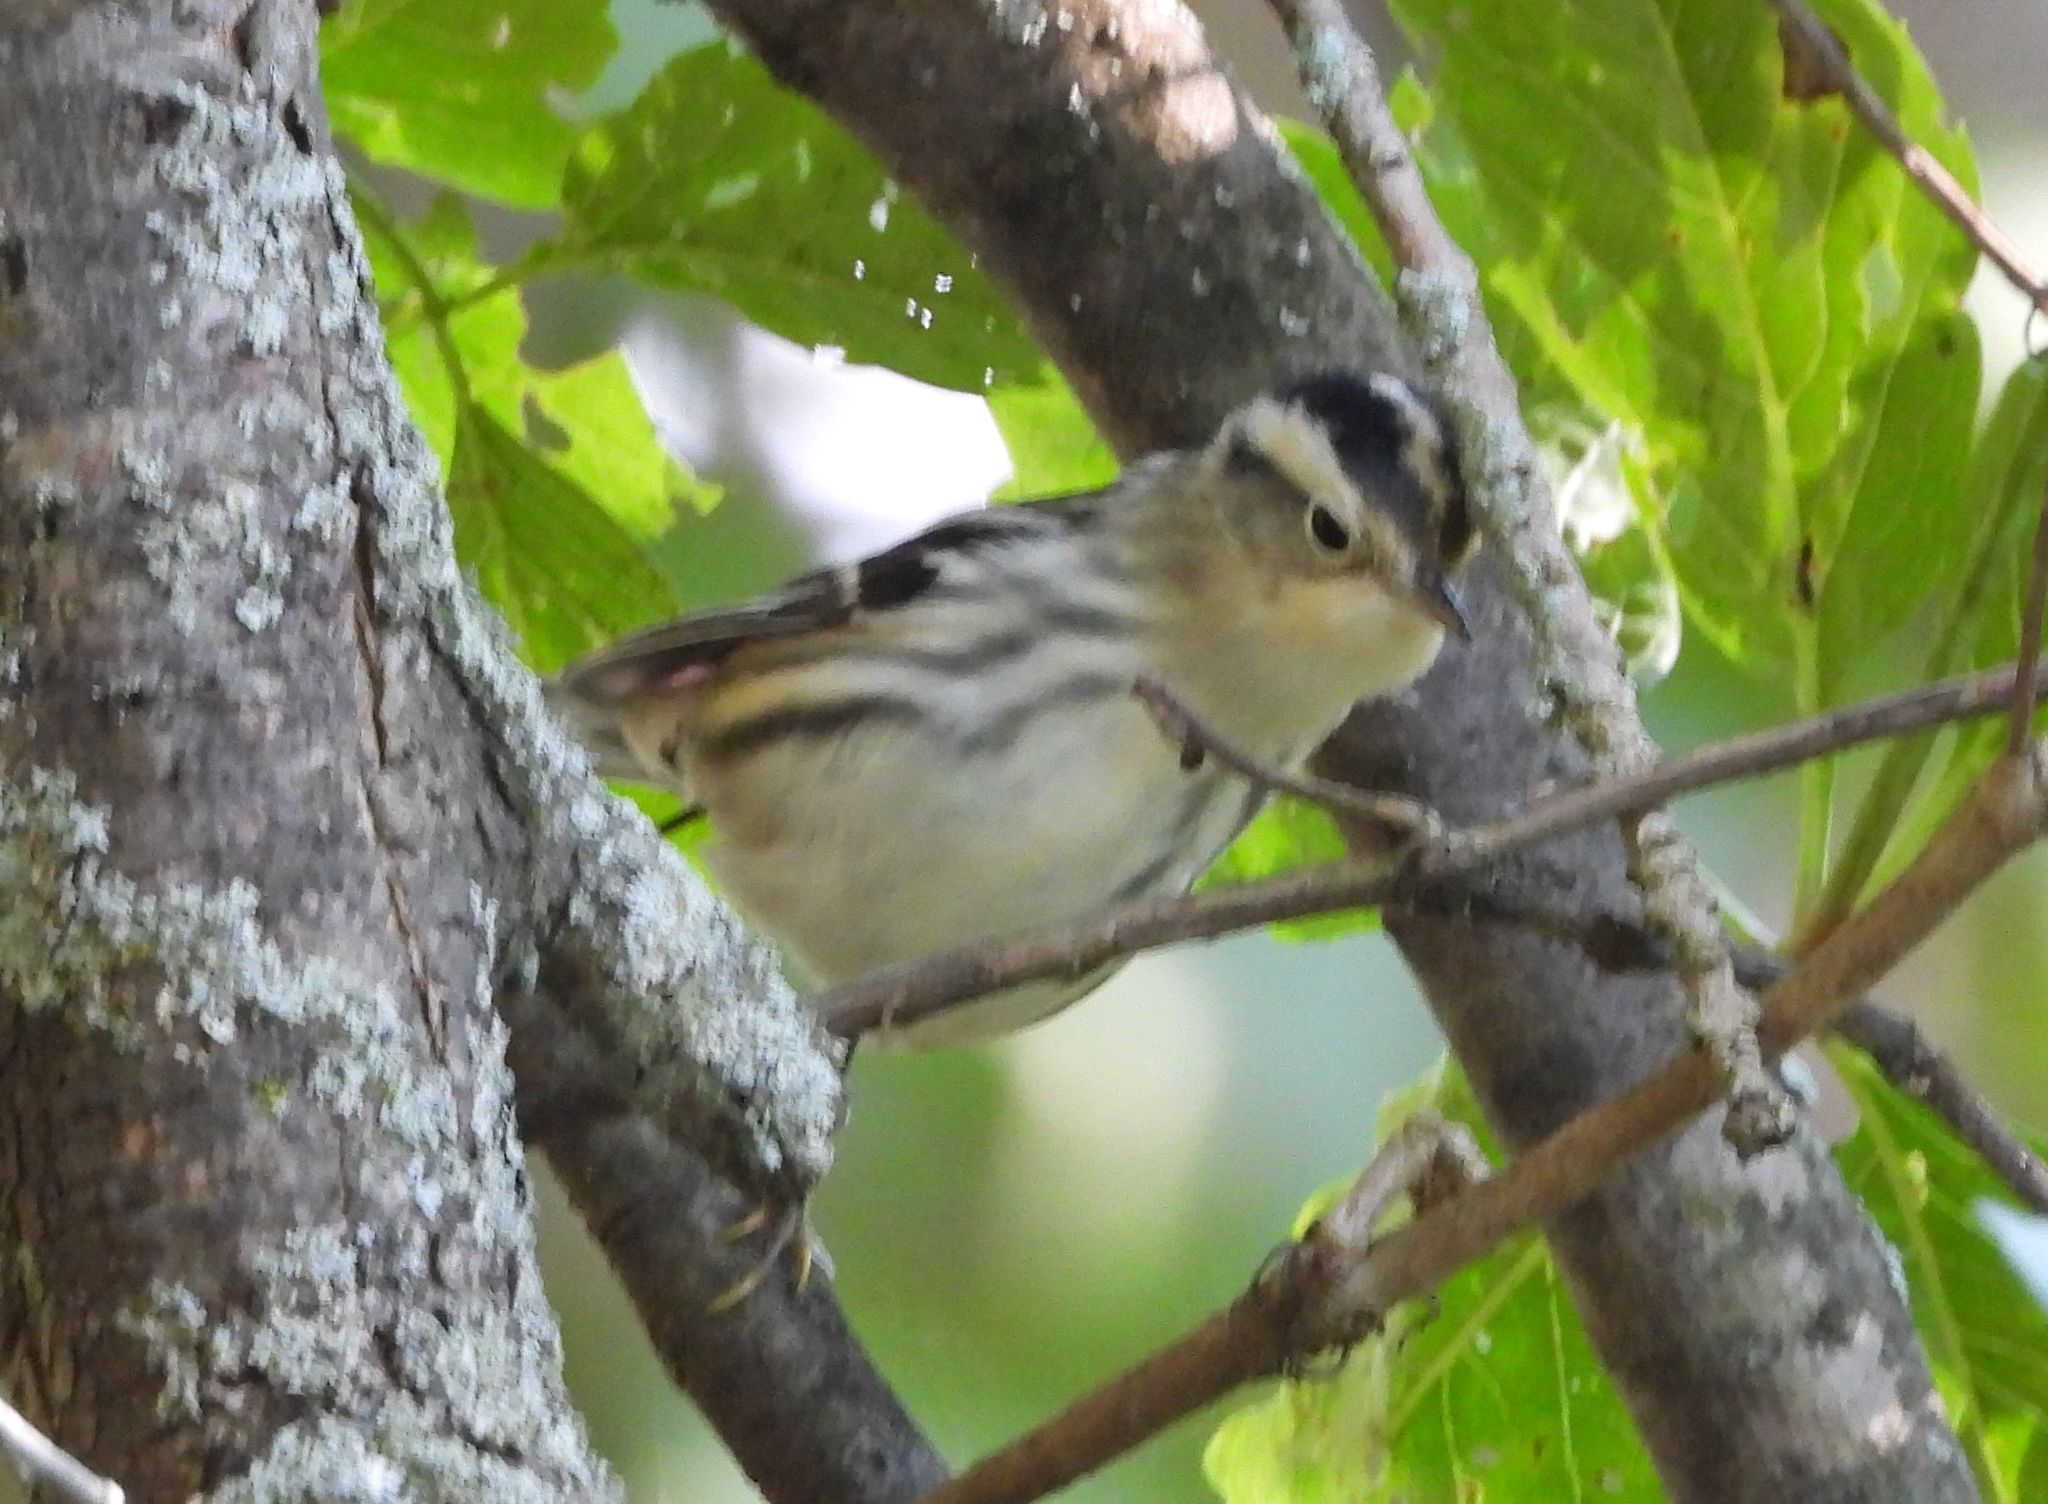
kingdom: Animalia
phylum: Chordata
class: Aves
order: Passeriformes
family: Parulidae
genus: Mniotilta
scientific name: Mniotilta varia
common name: Black-and-white warbler
